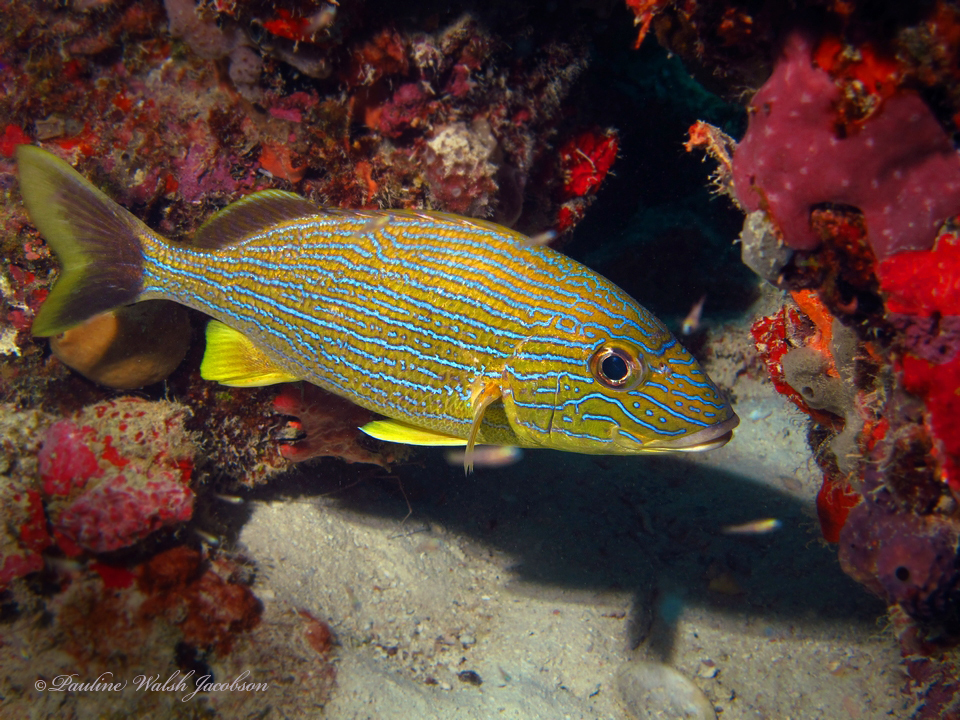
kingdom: Animalia
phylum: Chordata
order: Perciformes
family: Haemulidae
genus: Haemulon
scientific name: Haemulon sciurus
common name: Bluestriped grunt
